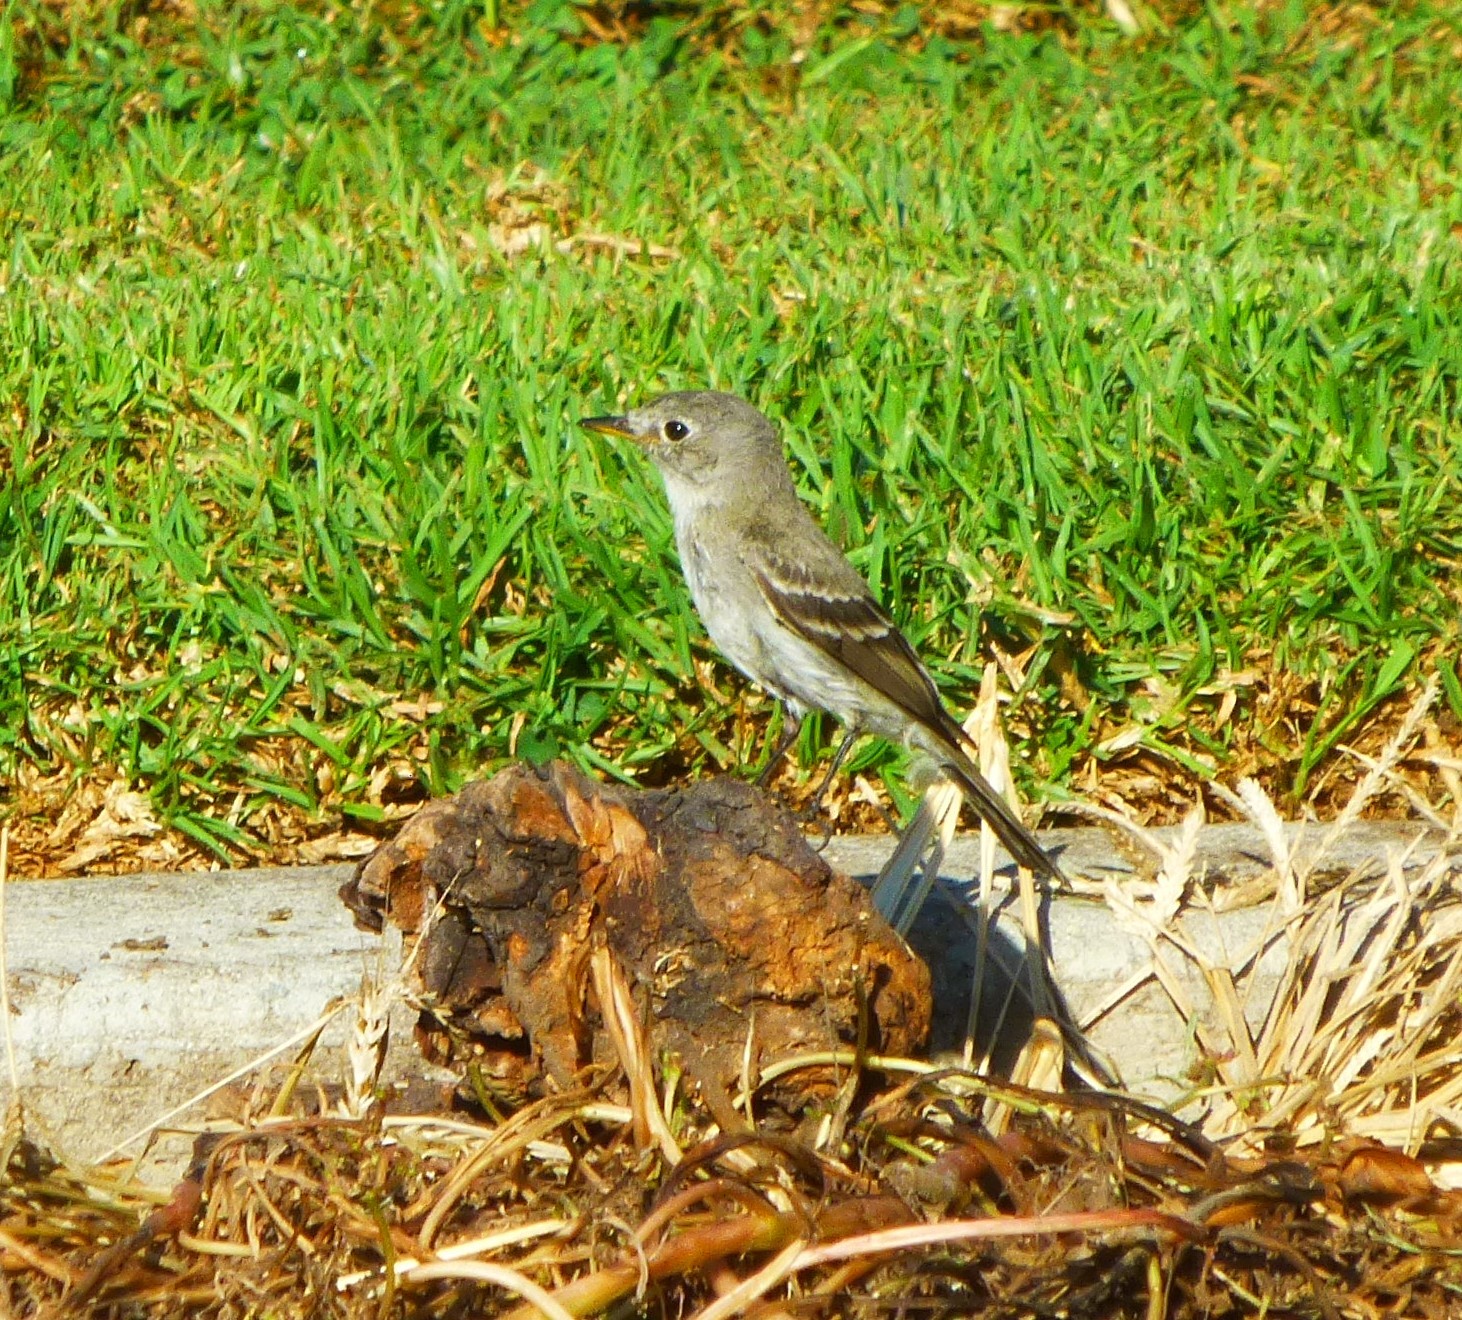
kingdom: Animalia
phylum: Chordata
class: Aves
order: Passeriformes
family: Tyrannidae
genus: Empidonax
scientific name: Empidonax wrightii
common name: Gray flycatcher
